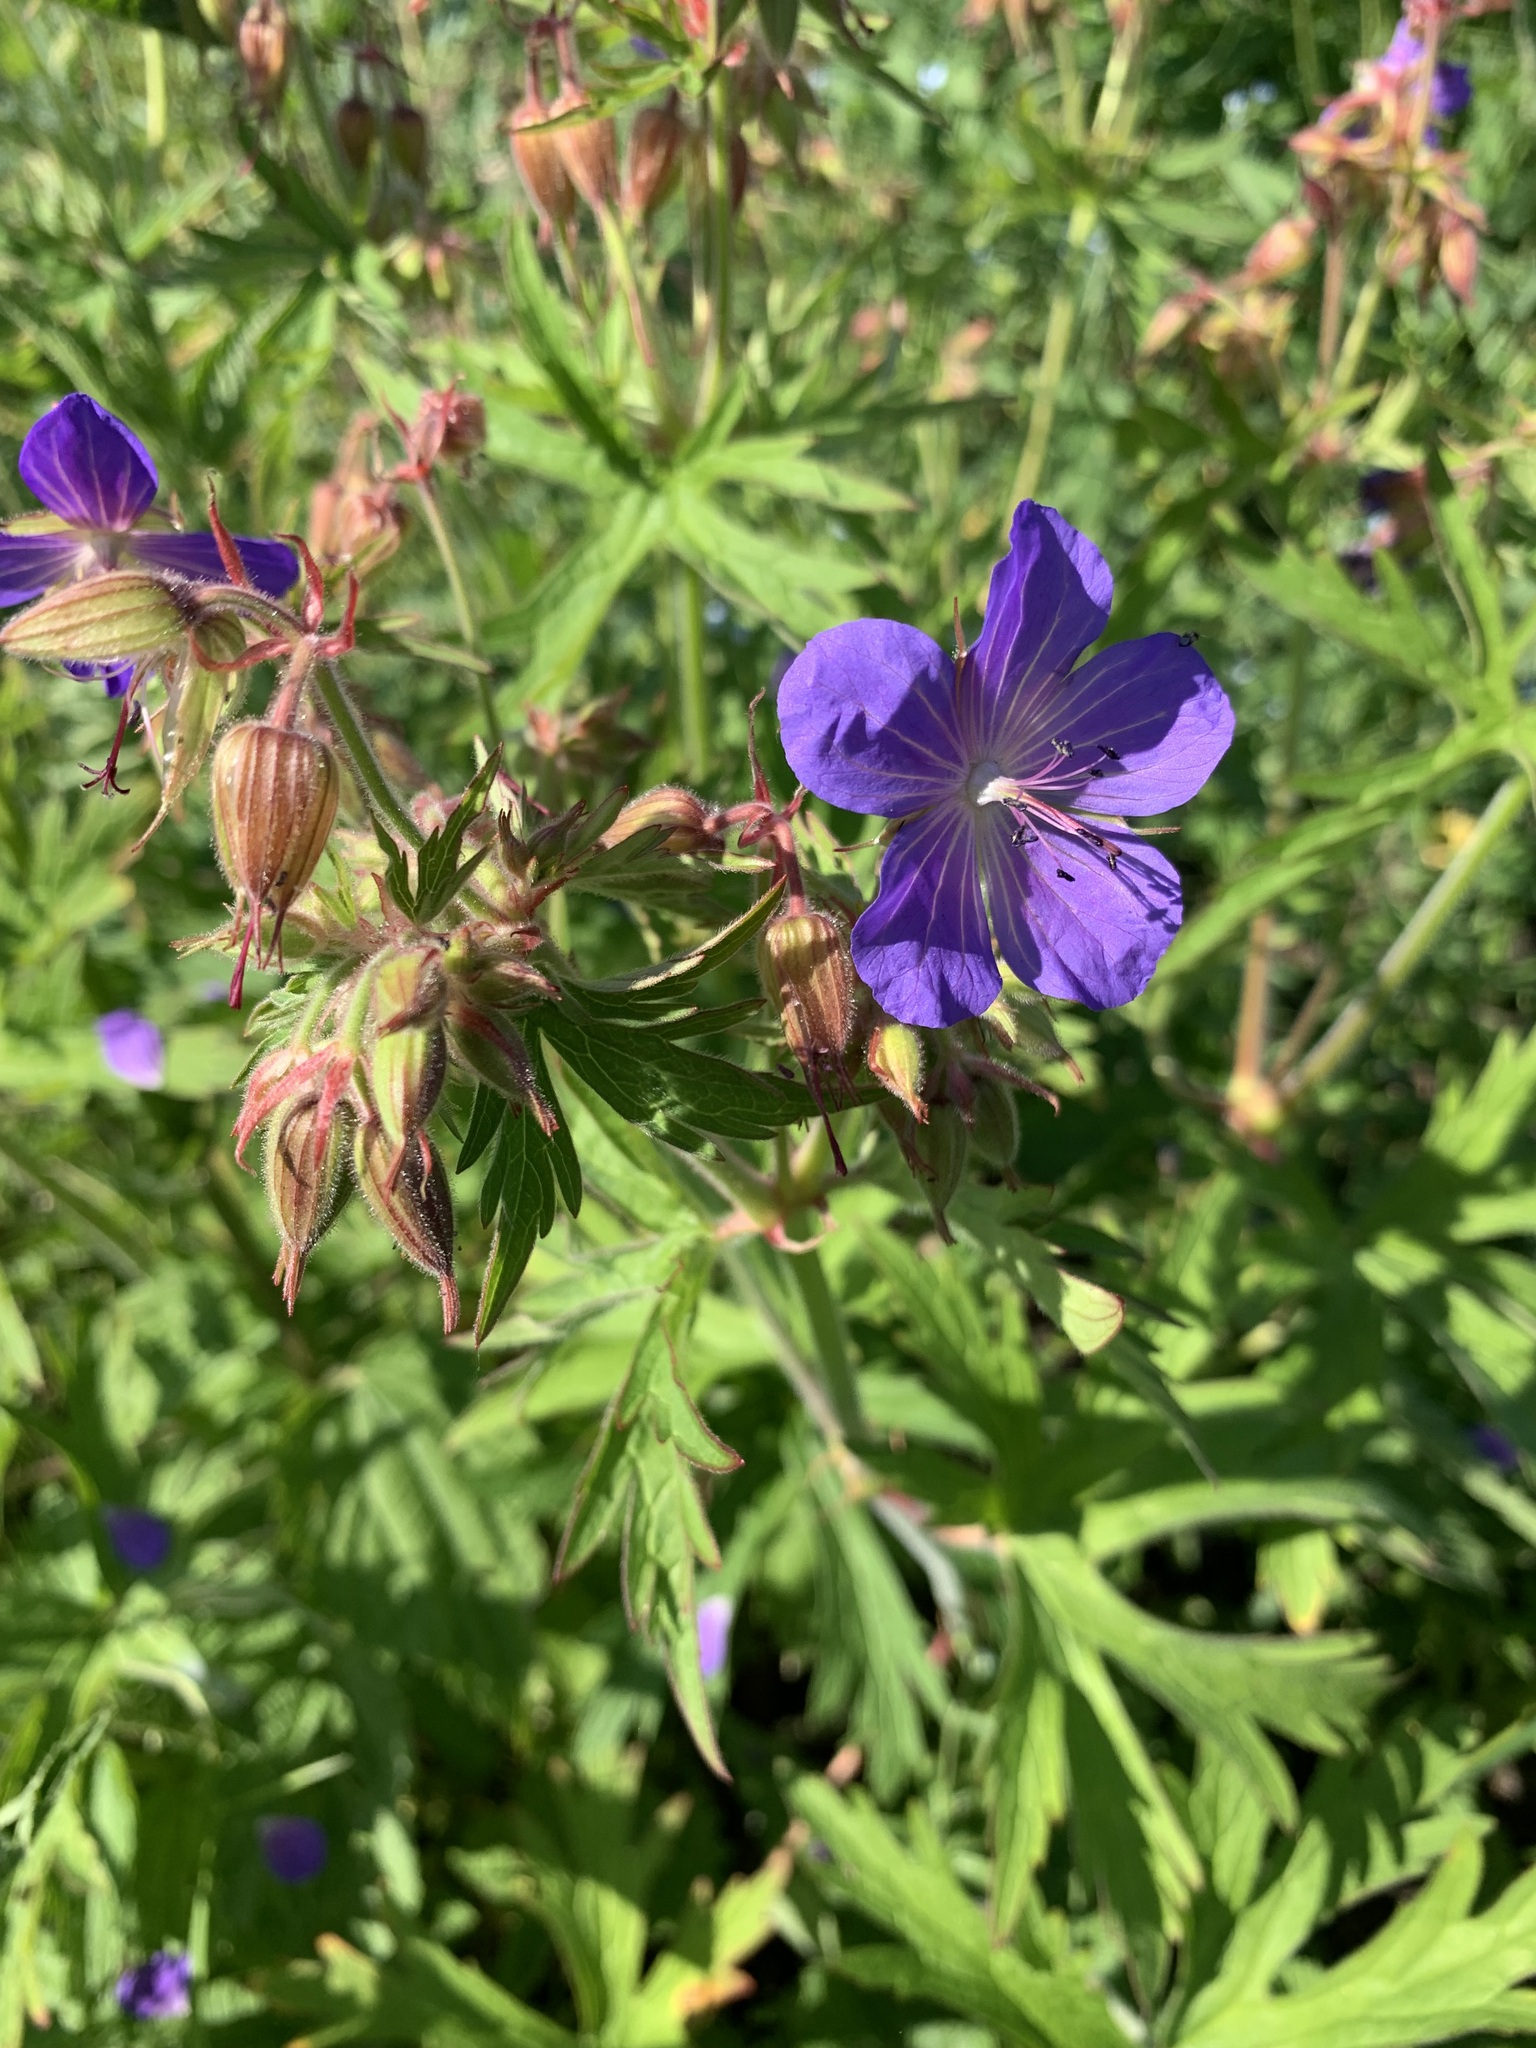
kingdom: Plantae
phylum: Tracheophyta
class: Magnoliopsida
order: Geraniales
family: Geraniaceae
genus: Geranium
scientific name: Geranium pratense
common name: Meadow crane's-bill
